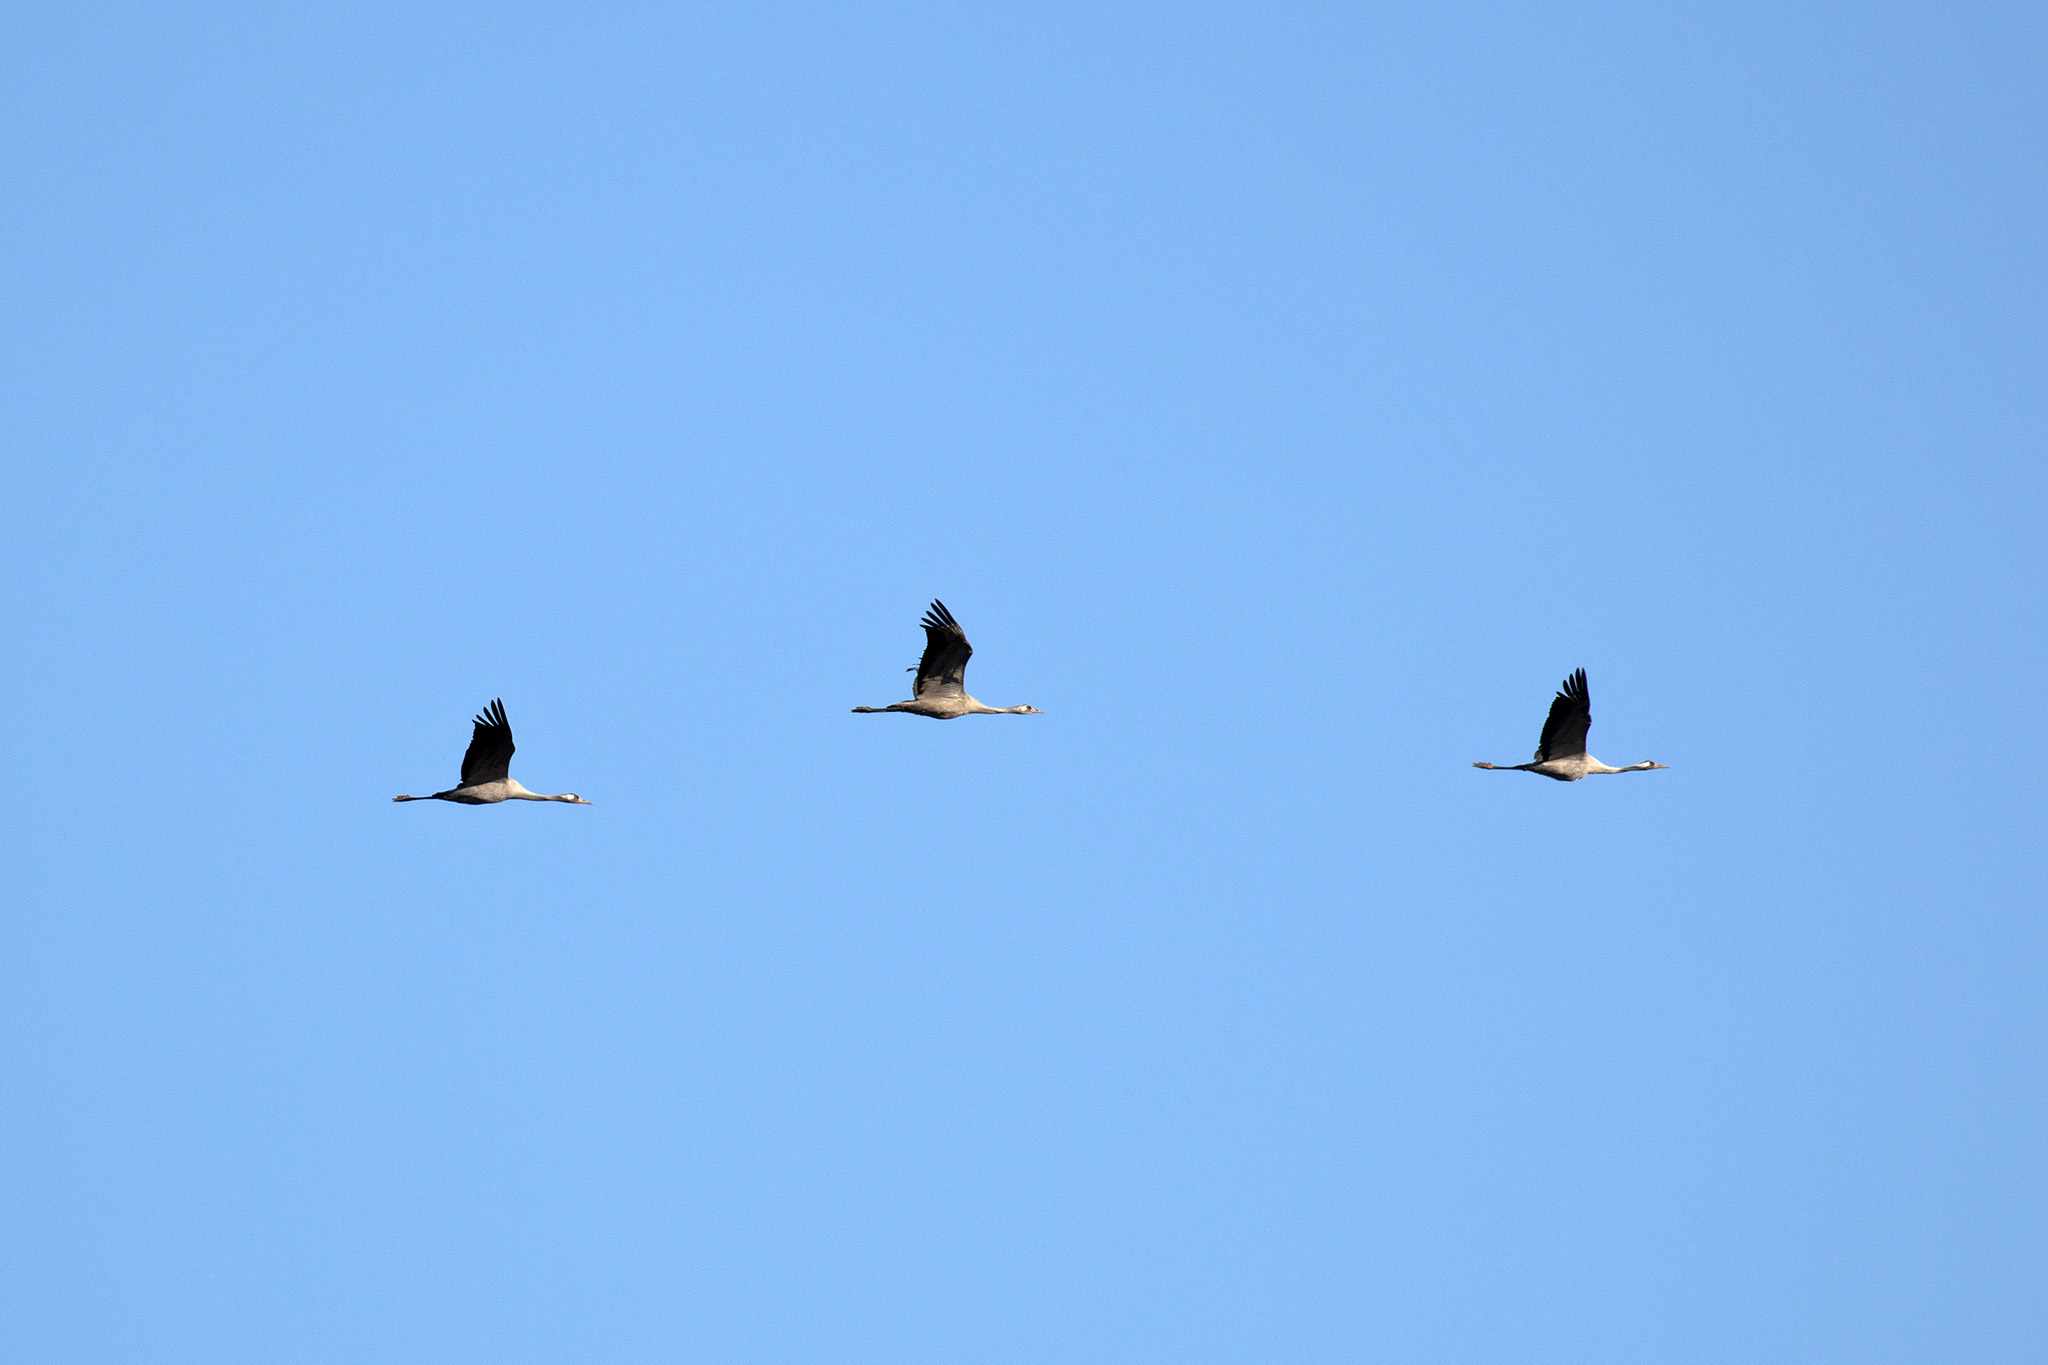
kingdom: Animalia
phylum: Chordata
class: Aves
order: Gruiformes
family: Gruidae
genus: Grus
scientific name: Grus grus
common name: Common crane
